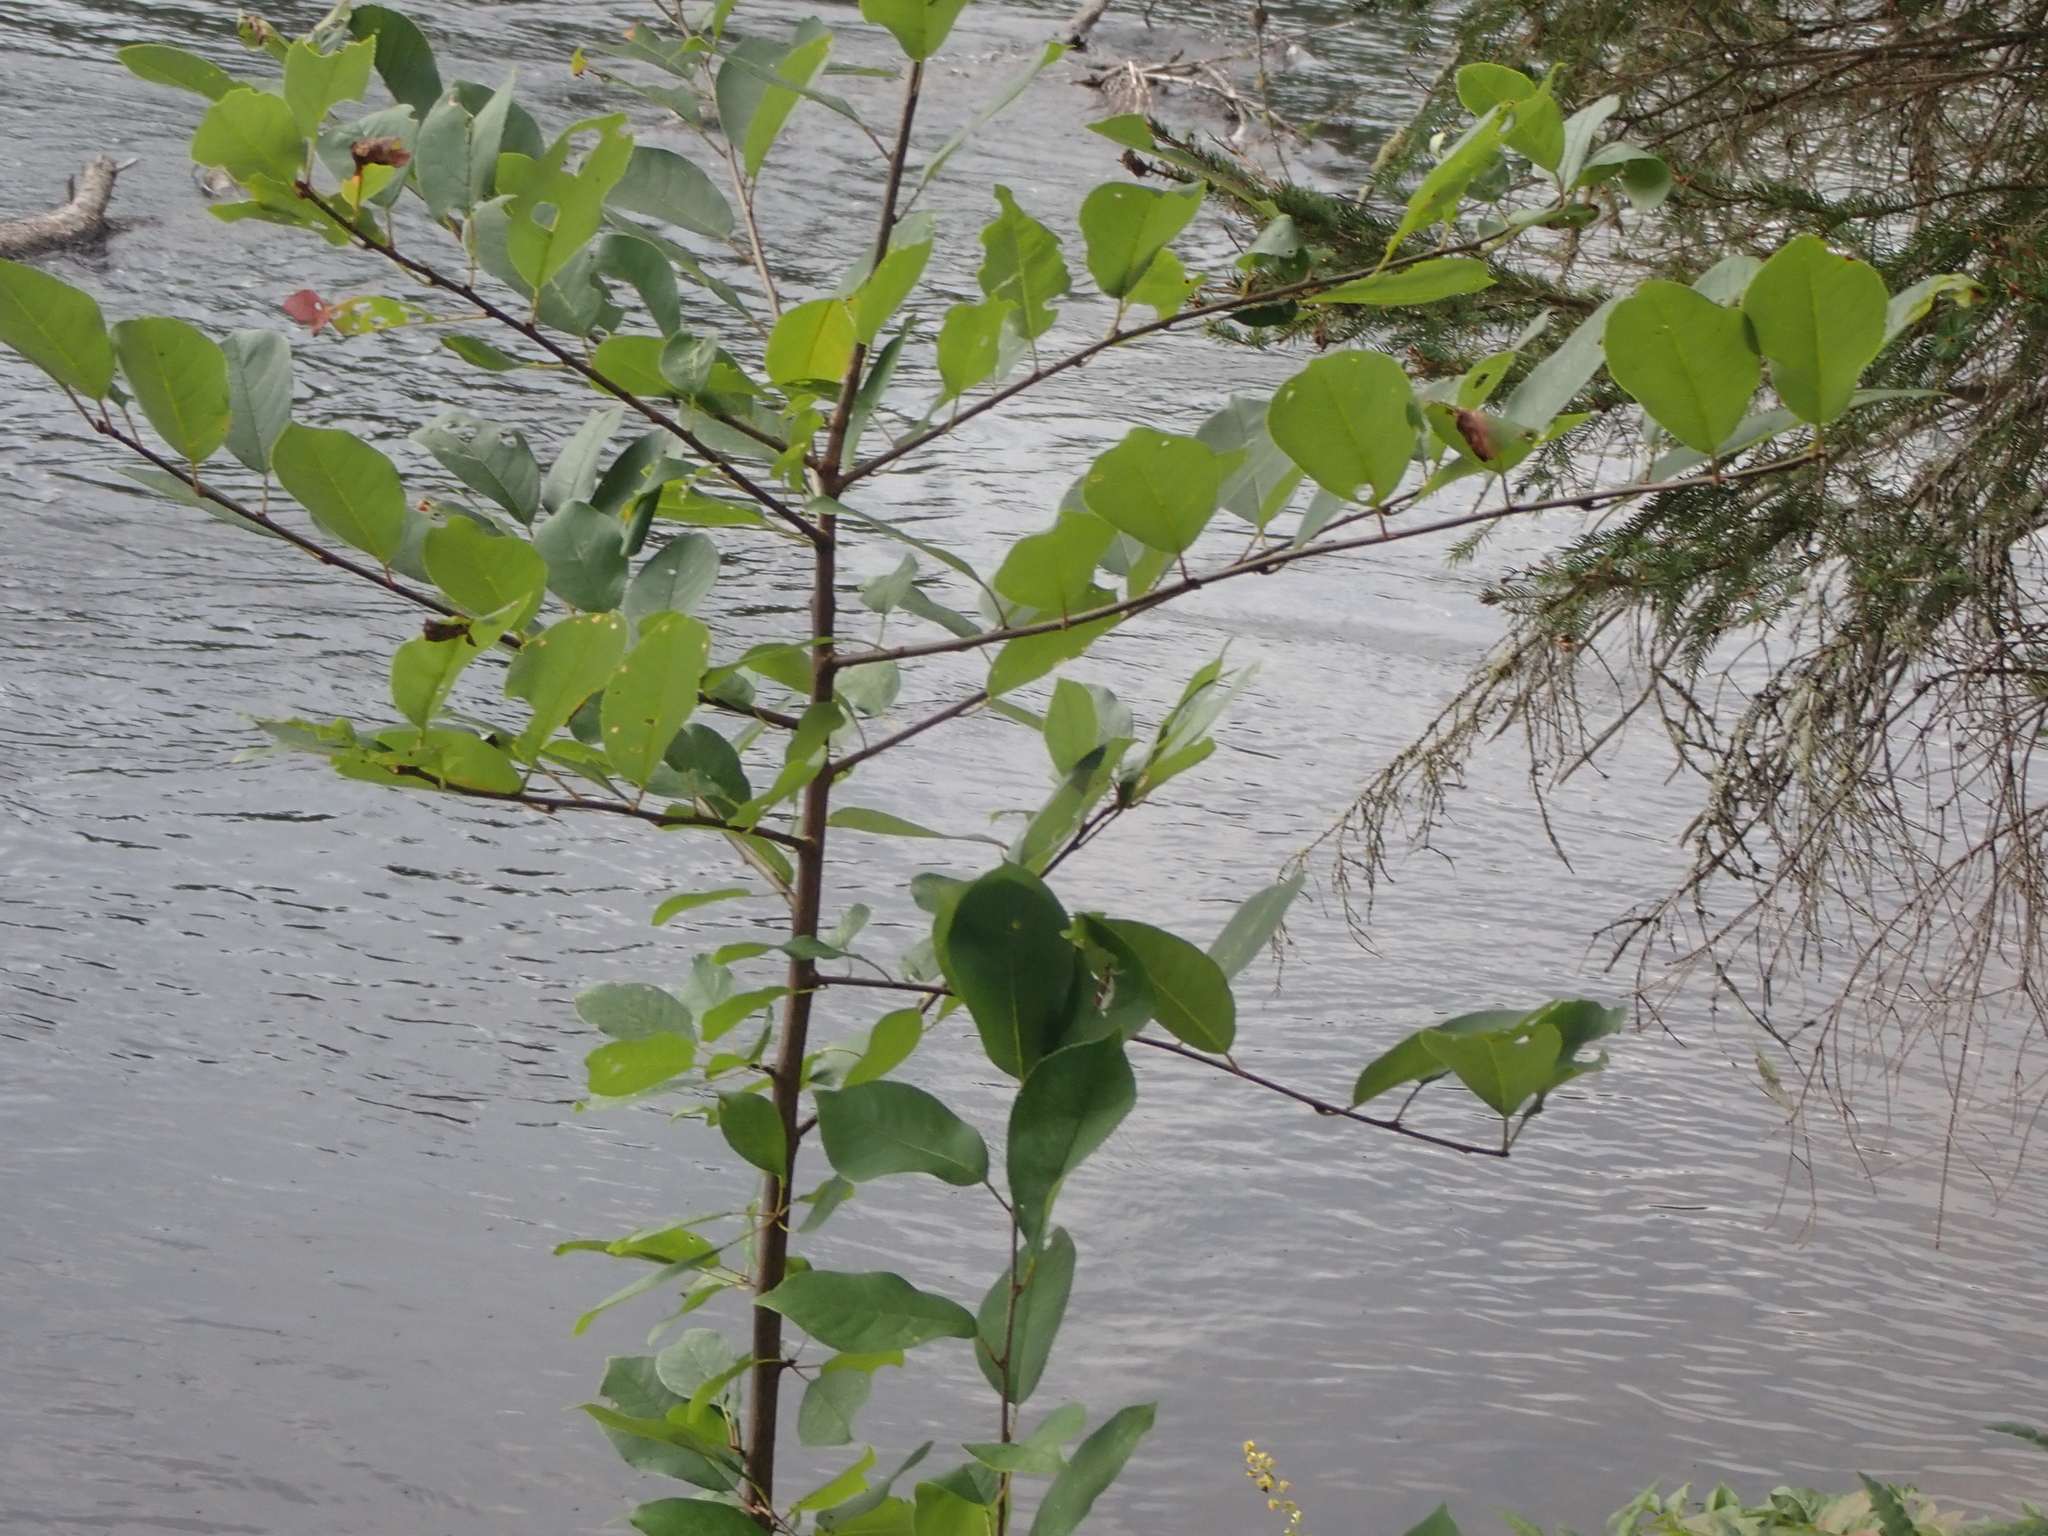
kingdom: Plantae
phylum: Tracheophyta
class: Magnoliopsida
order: Rosales
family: Rosaceae
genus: Prunus
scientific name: Prunus virginiana
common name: Chokecherry
